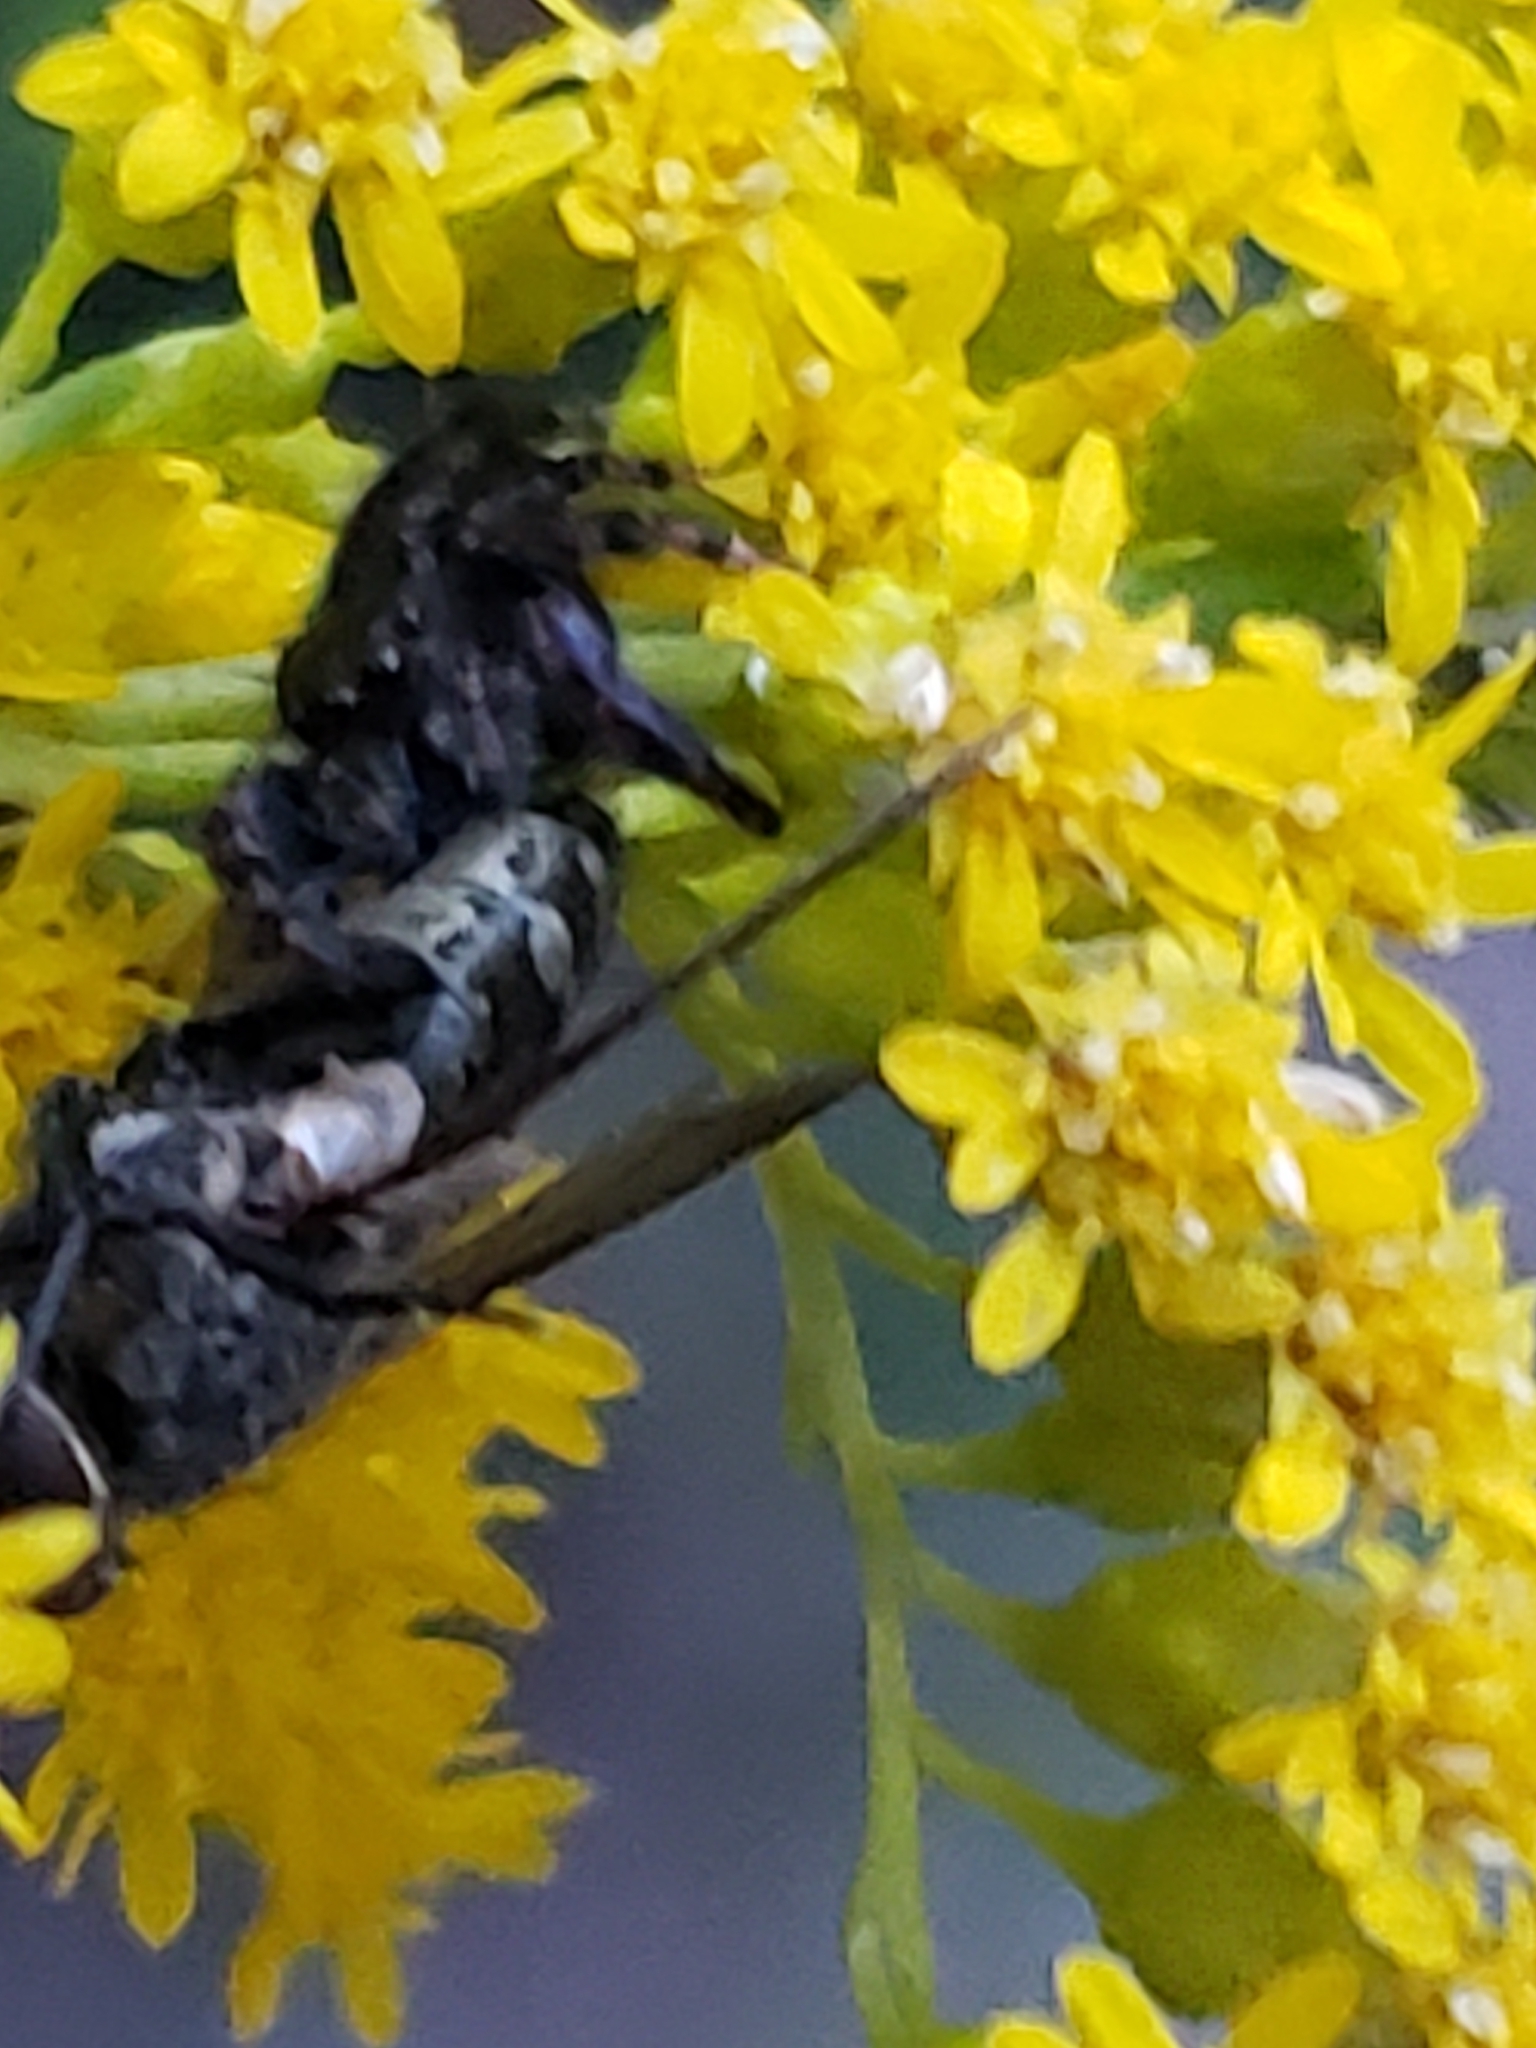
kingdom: Animalia
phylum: Arthropoda
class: Arachnida
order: Araneae
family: Salticidae
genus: Phidippus
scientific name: Phidippus audax
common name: Bold jumper
